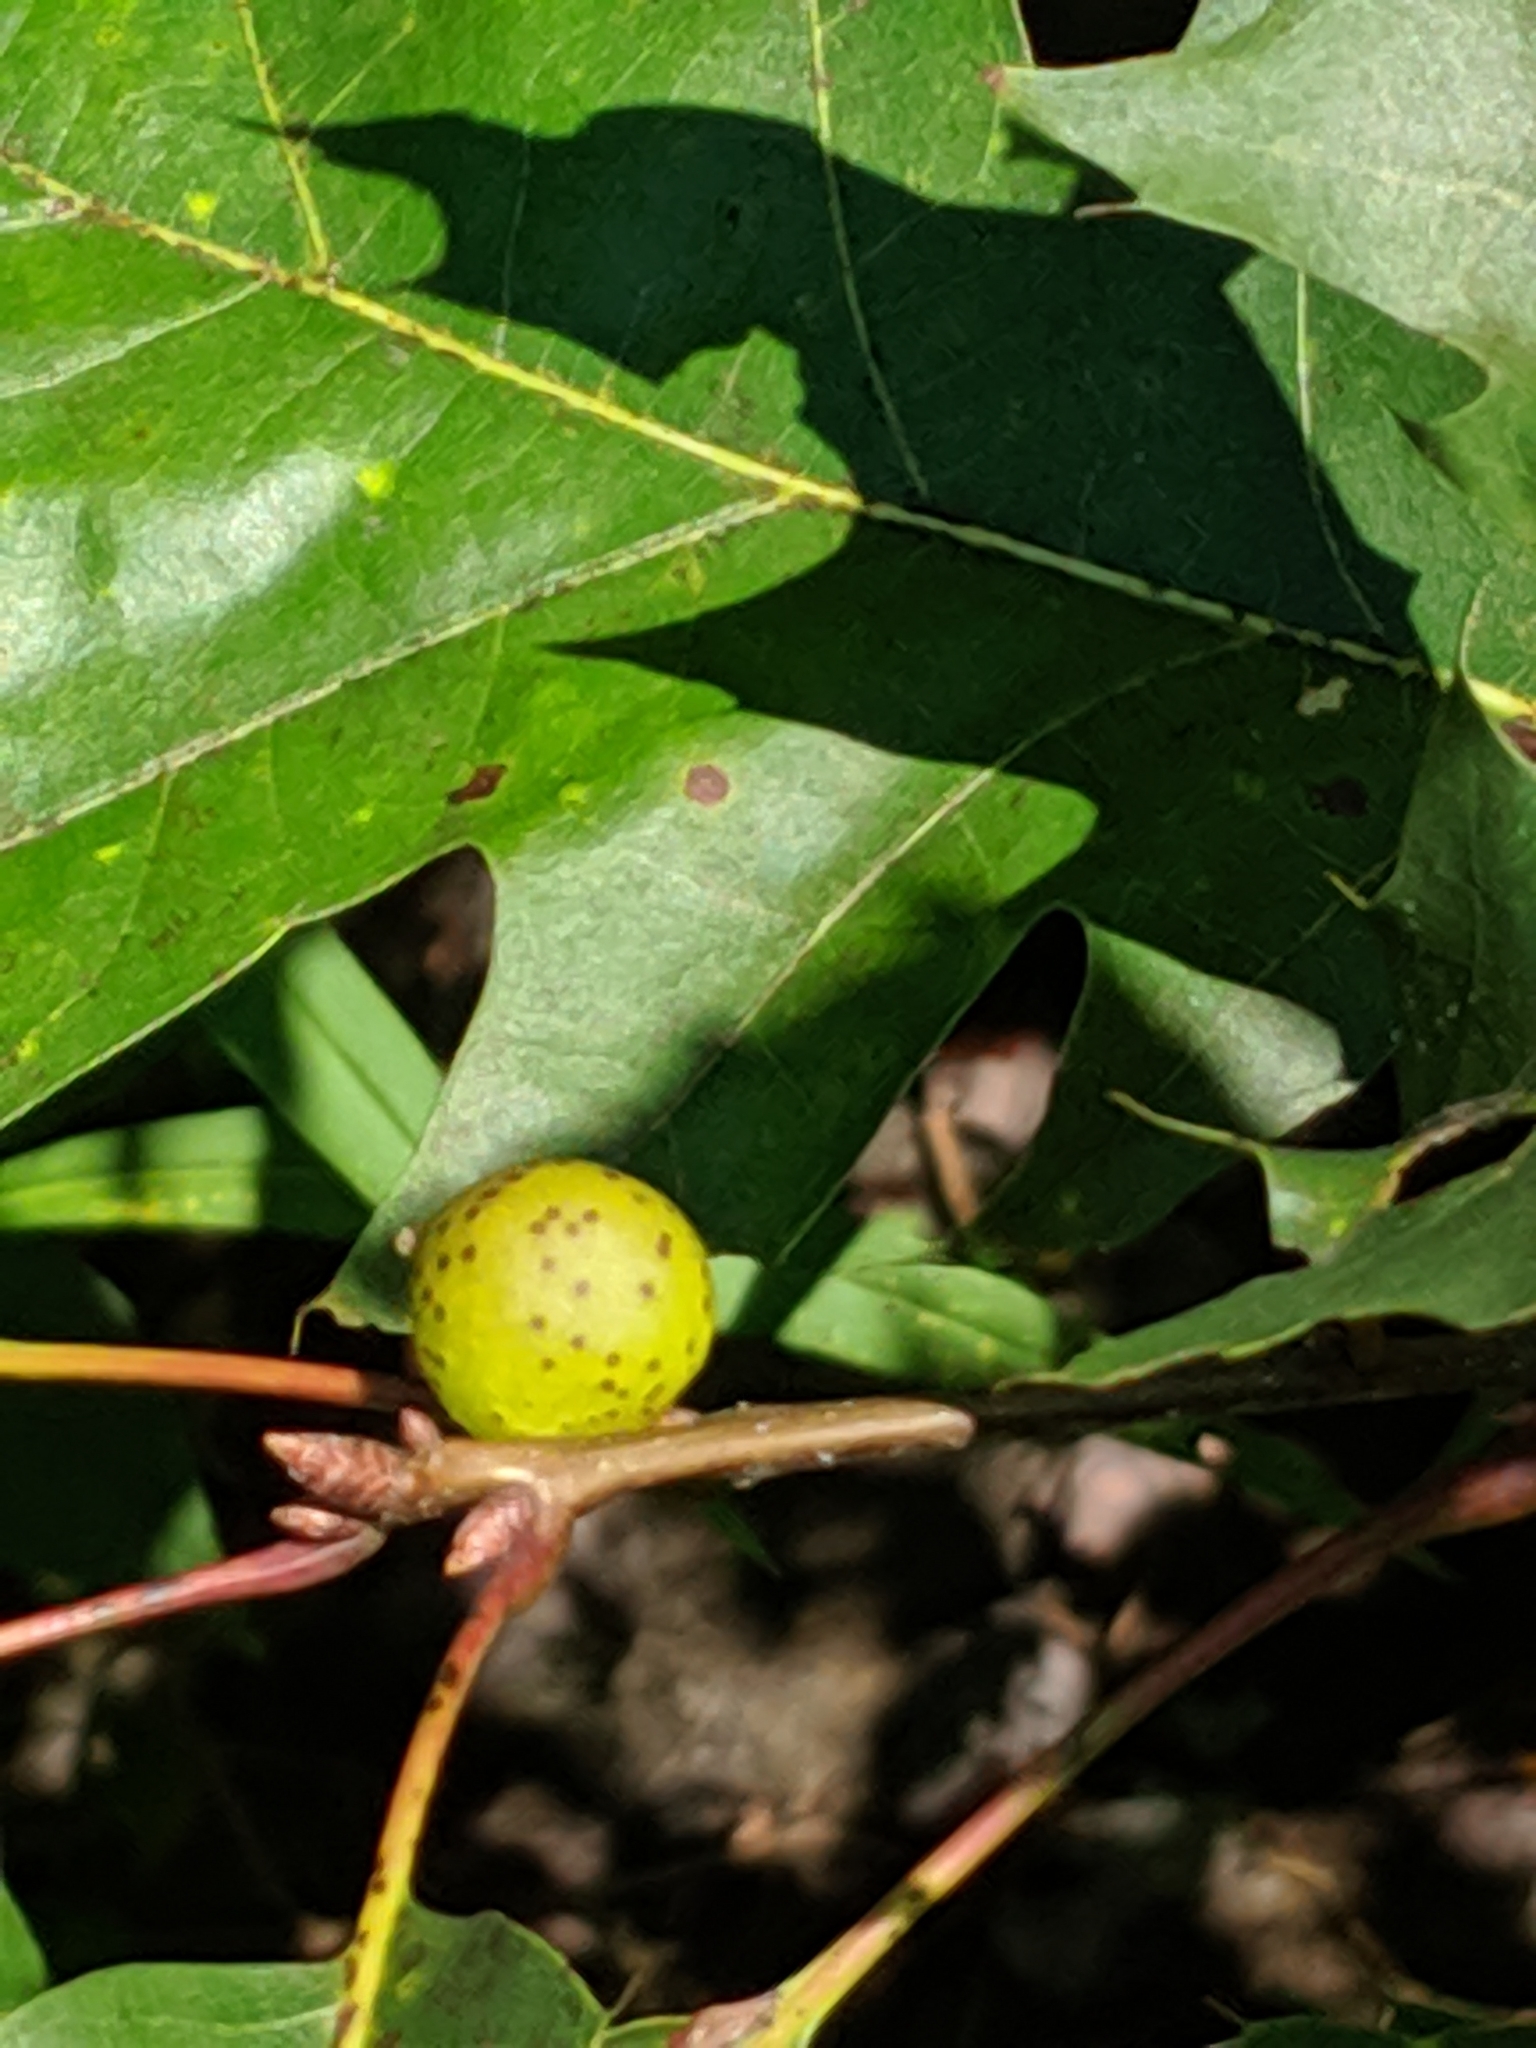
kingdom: Animalia
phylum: Arthropoda
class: Insecta
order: Hymenoptera
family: Cynipidae
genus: Amphibolips
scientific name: Amphibolips
